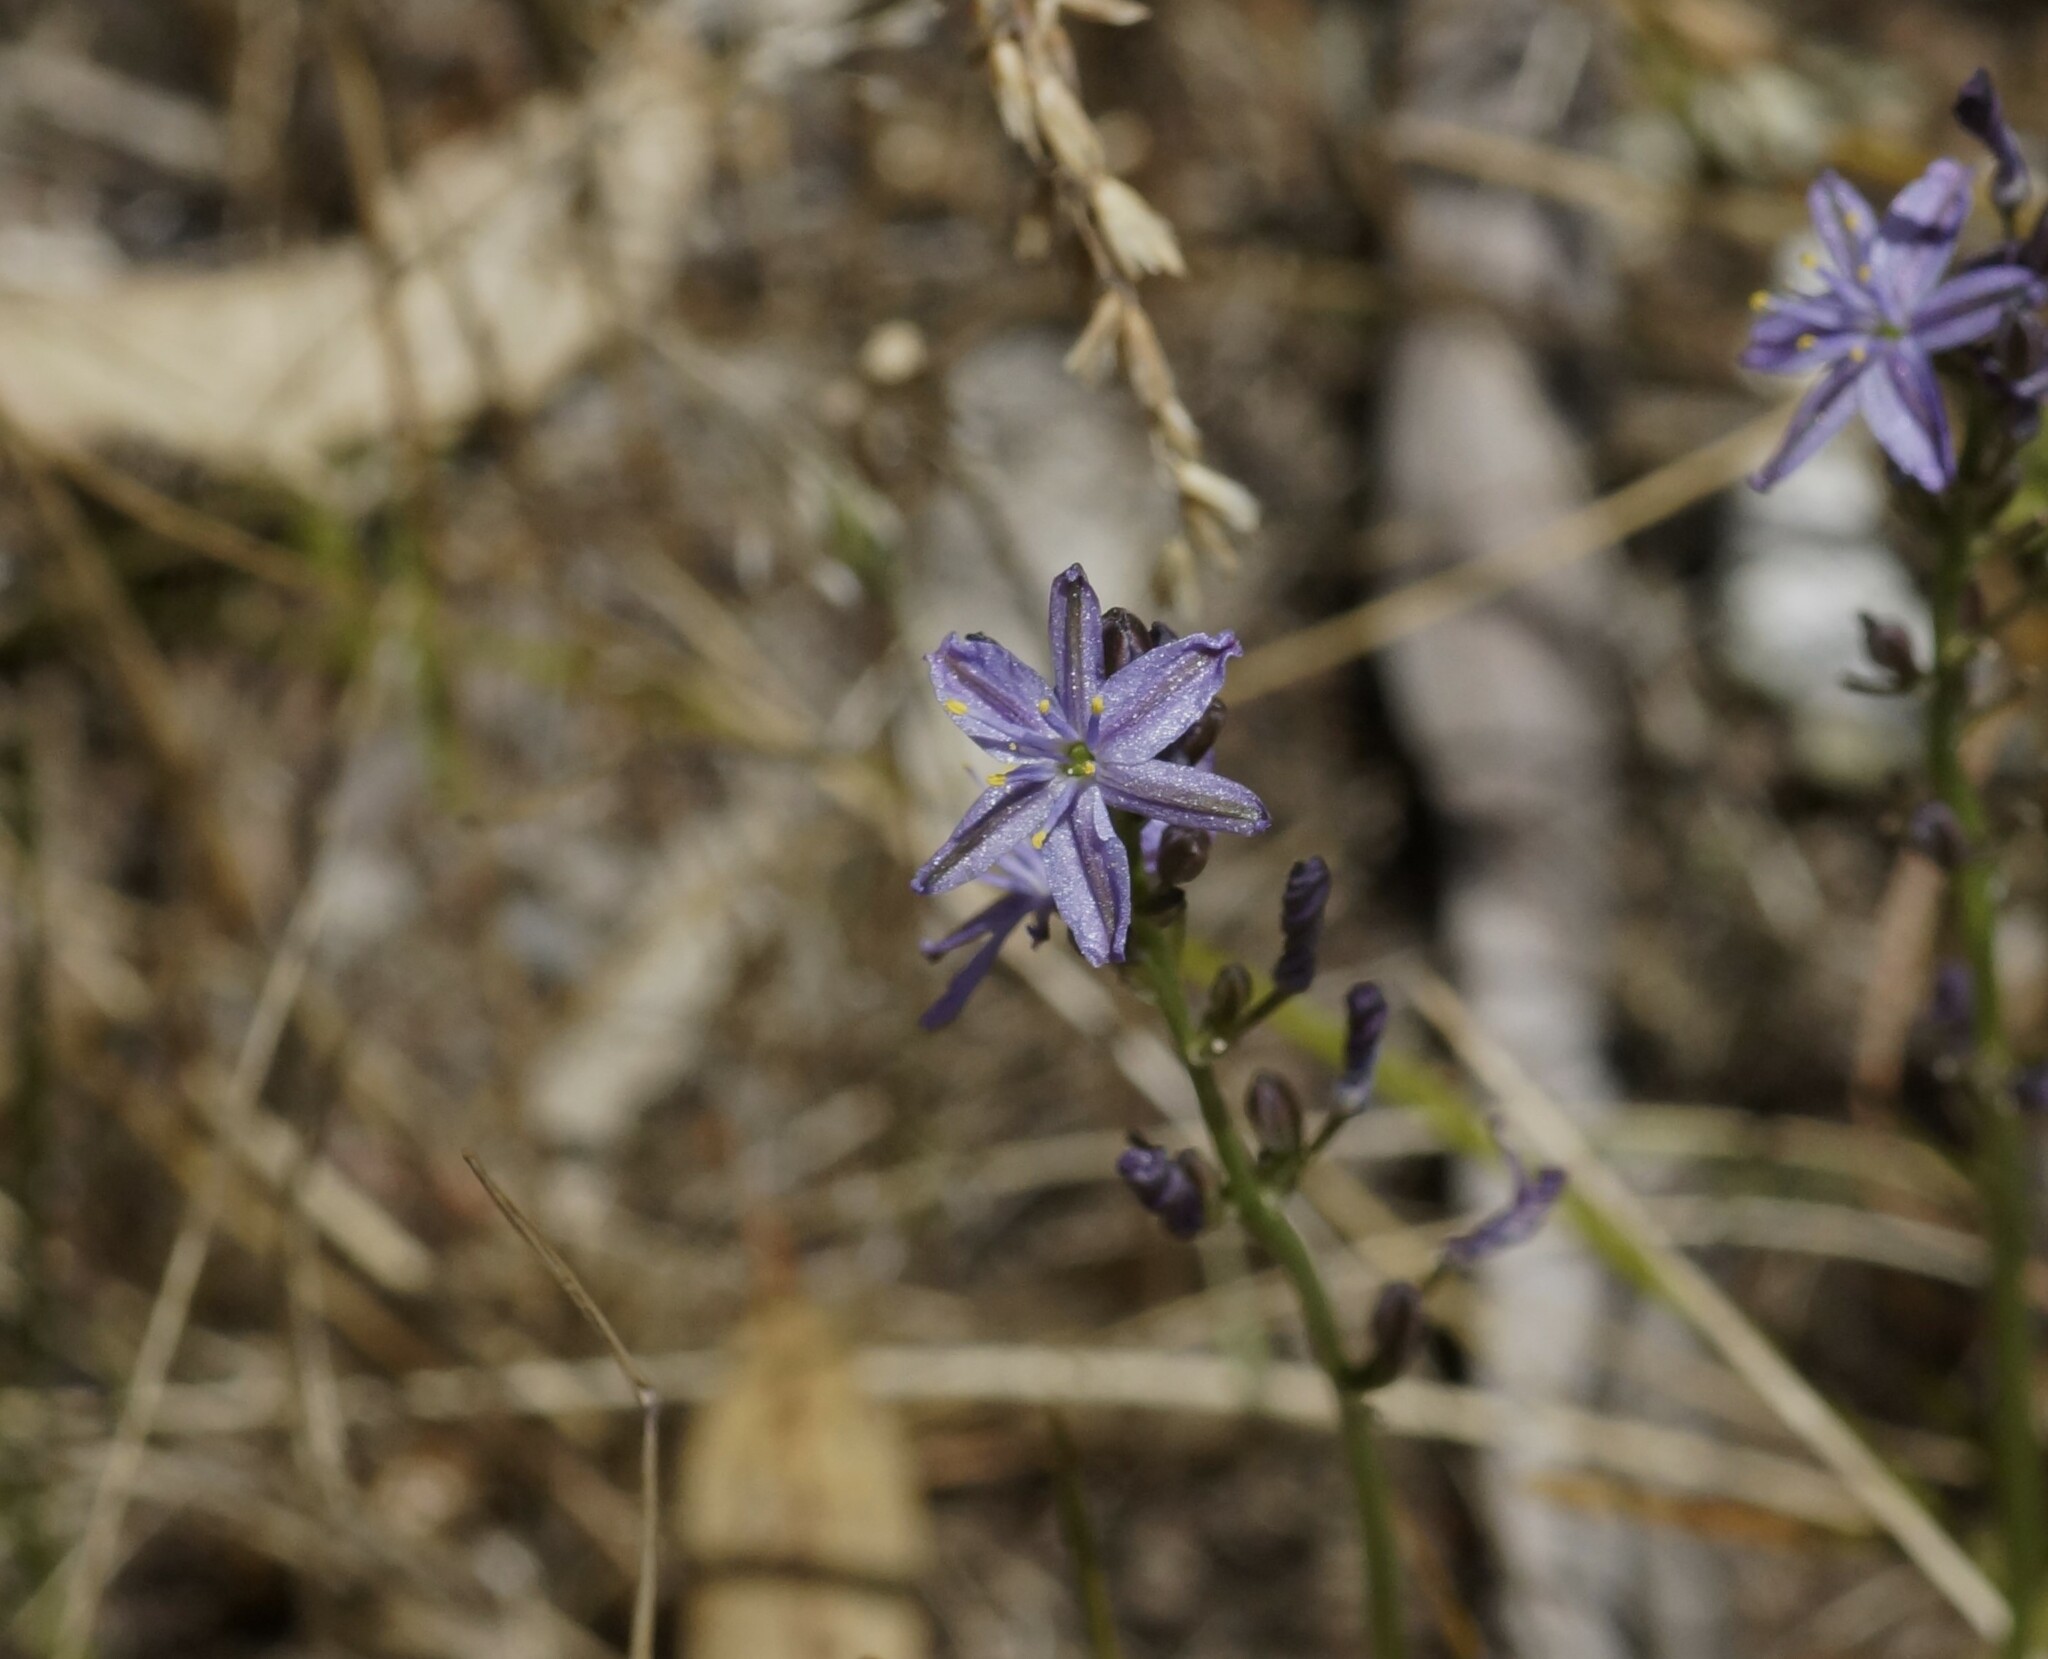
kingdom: Plantae
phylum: Tracheophyta
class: Liliopsida
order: Asparagales
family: Asphodelaceae
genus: Caesia
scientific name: Caesia calliantha
